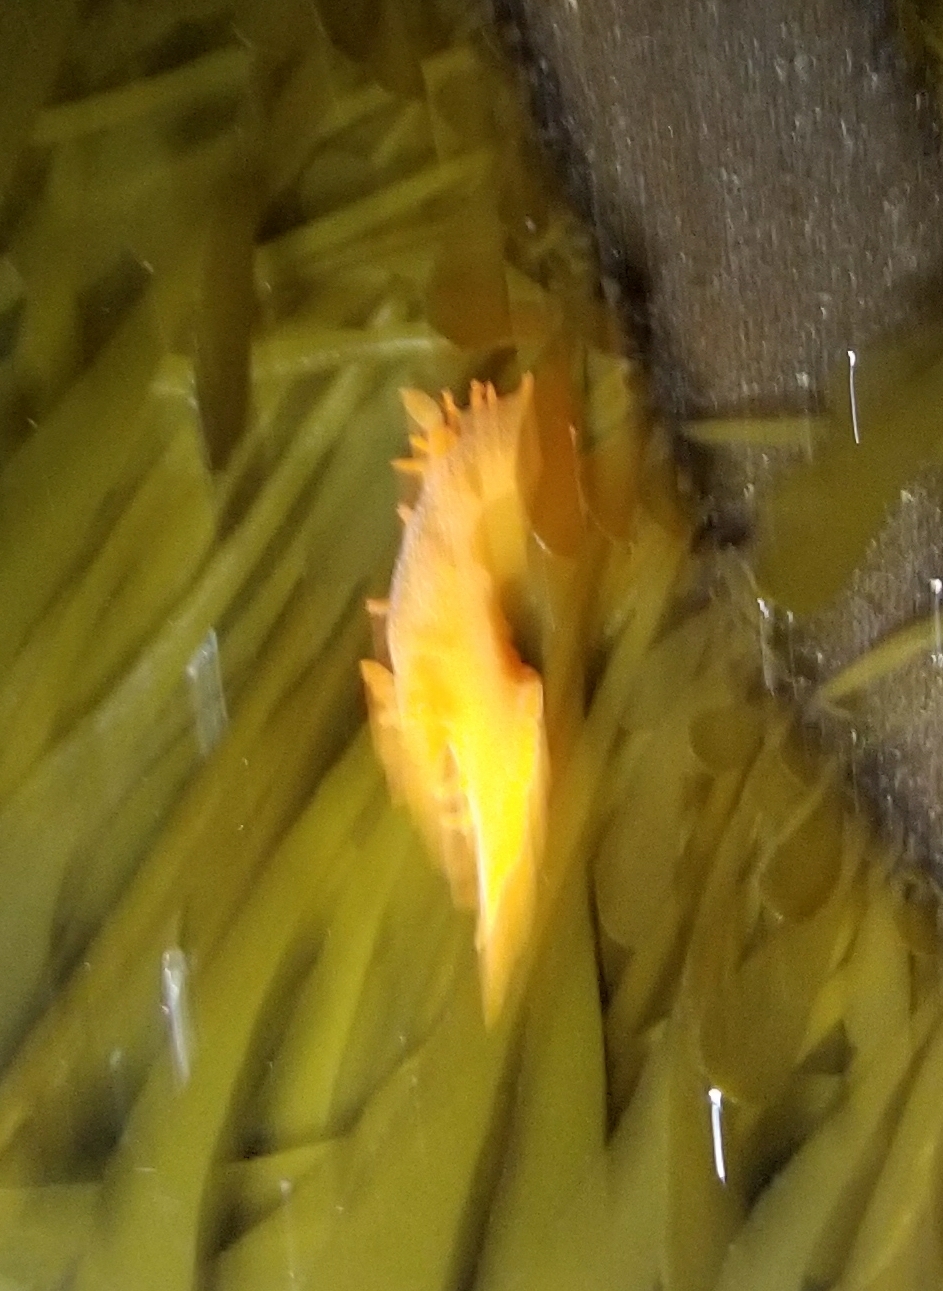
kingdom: Animalia
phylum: Mollusca
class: Gastropoda
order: Nudibranchia
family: Polyceridae
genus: Triopha
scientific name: Triopha maculata
